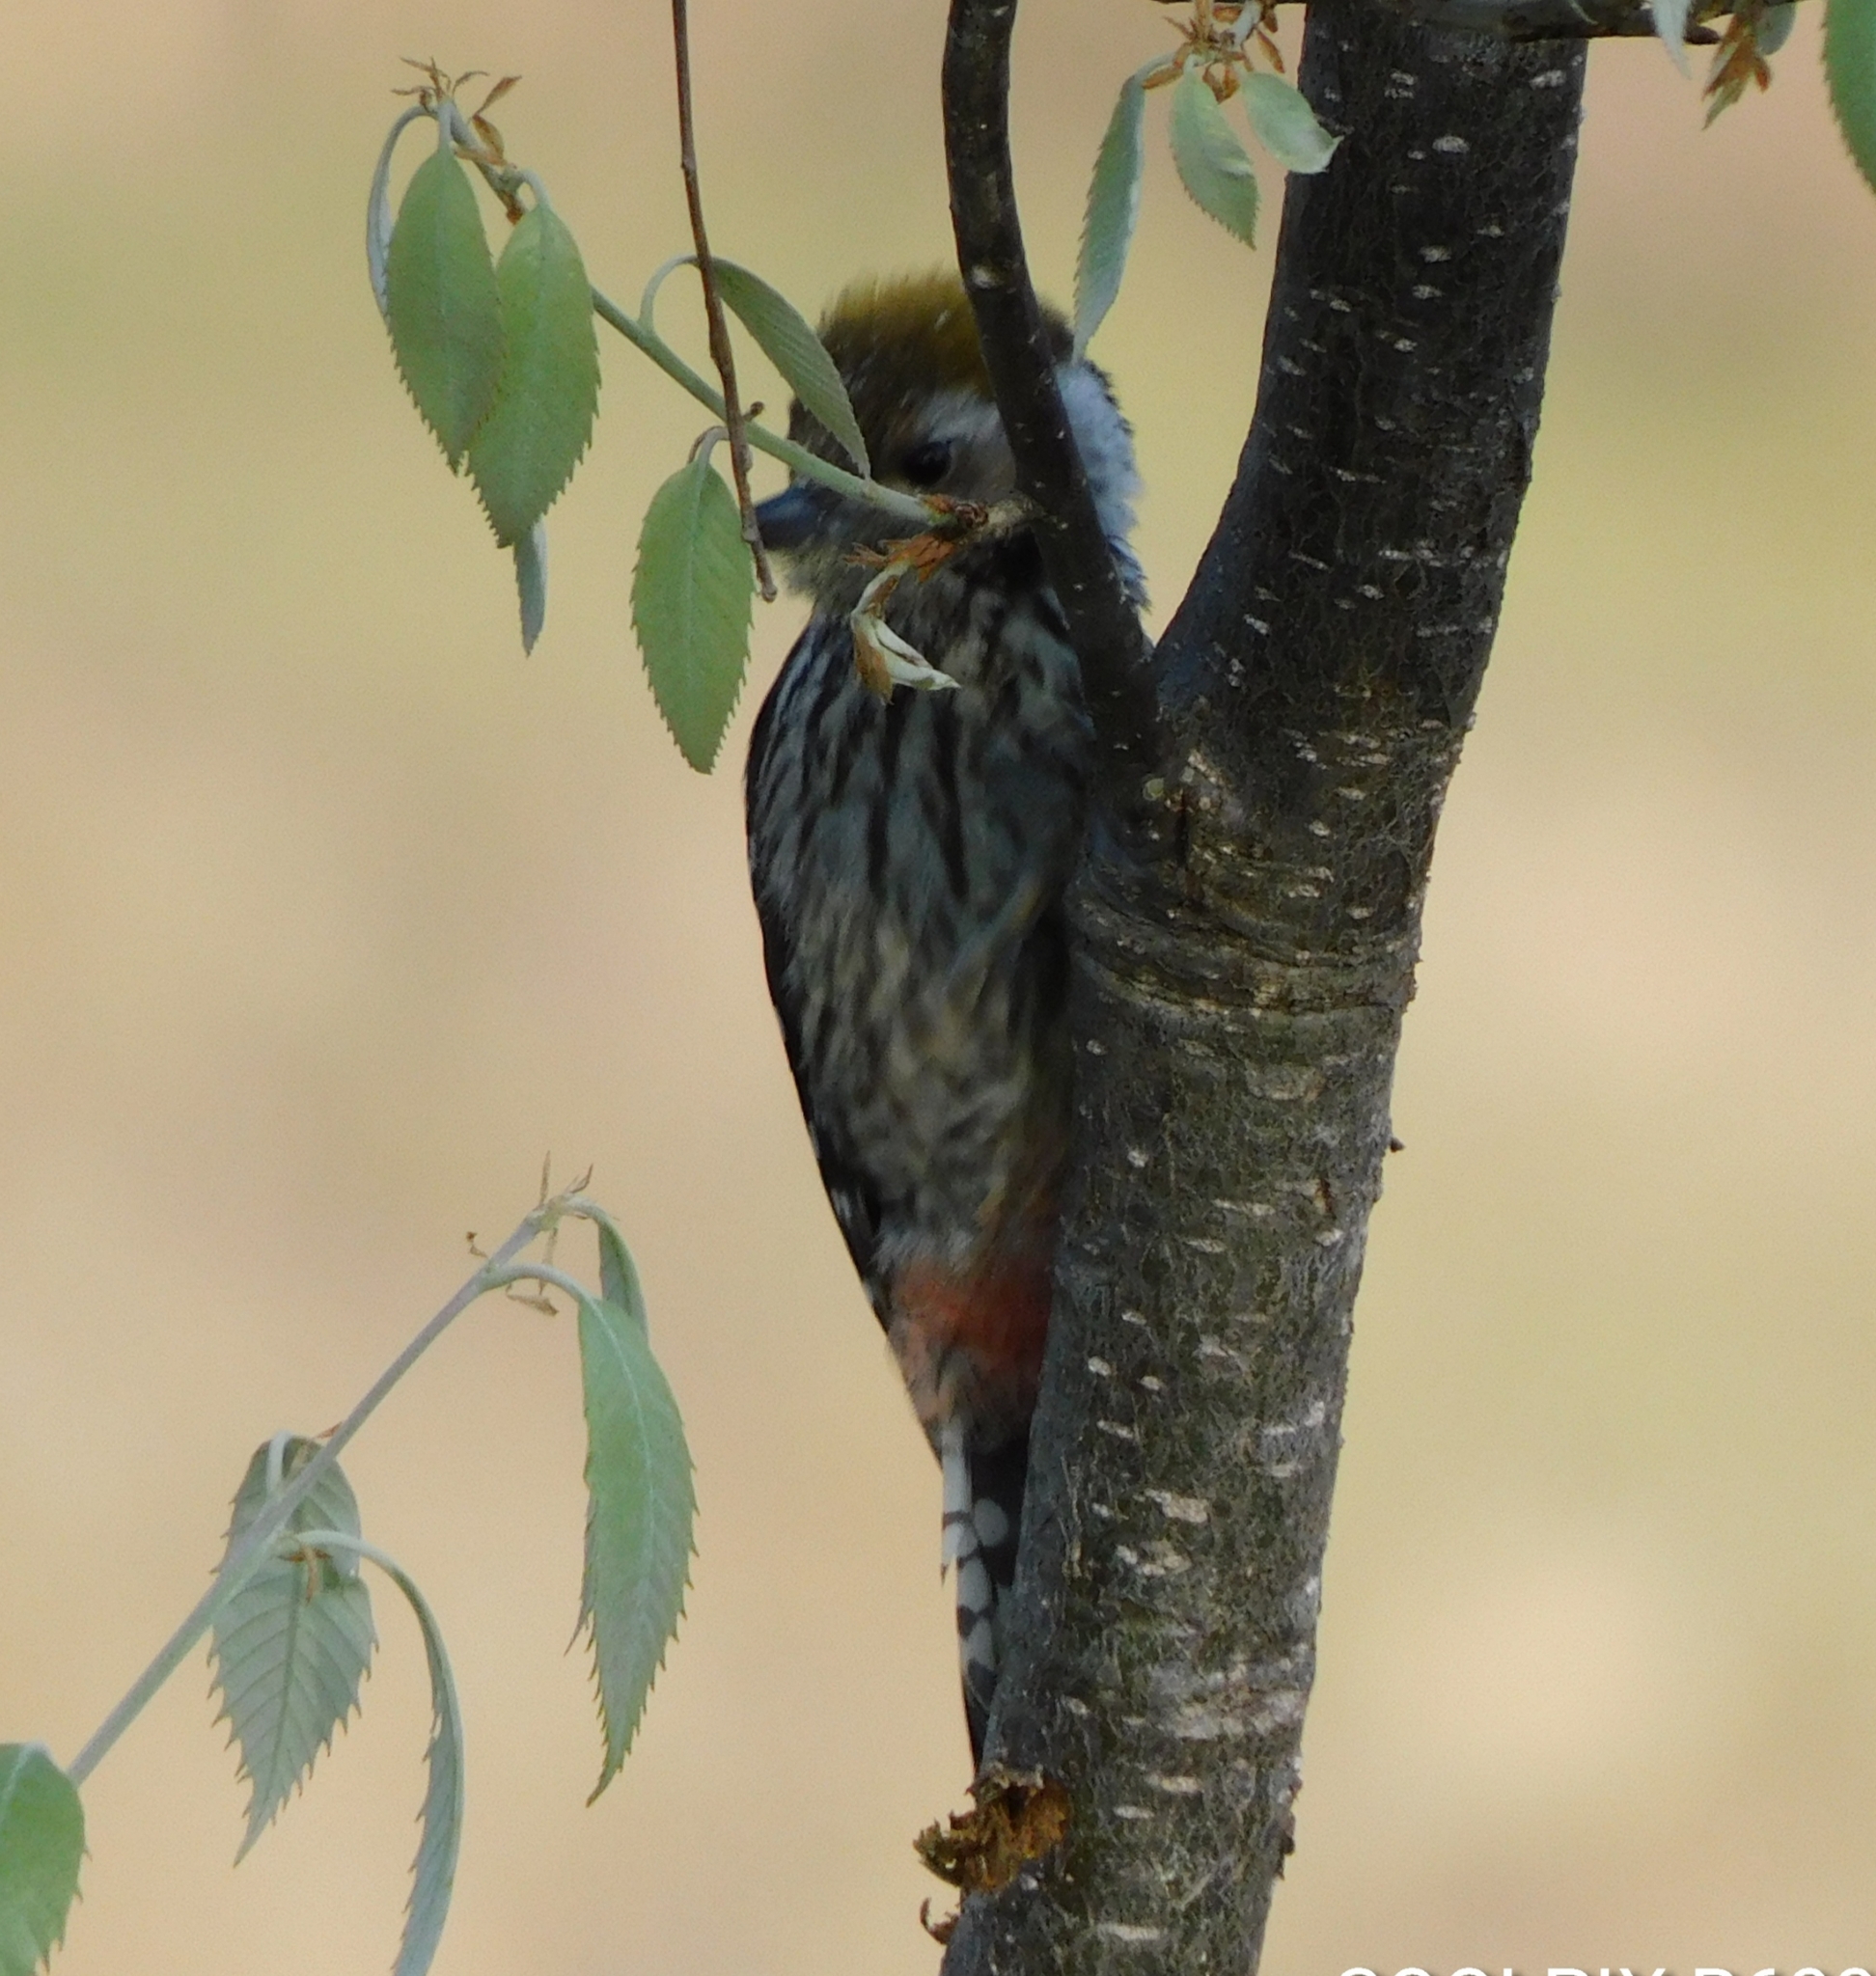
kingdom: Animalia
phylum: Chordata
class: Aves
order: Piciformes
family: Picidae
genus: Dendrocoptes
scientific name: Dendrocoptes auriceps
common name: Brown-fronted woodpecker
